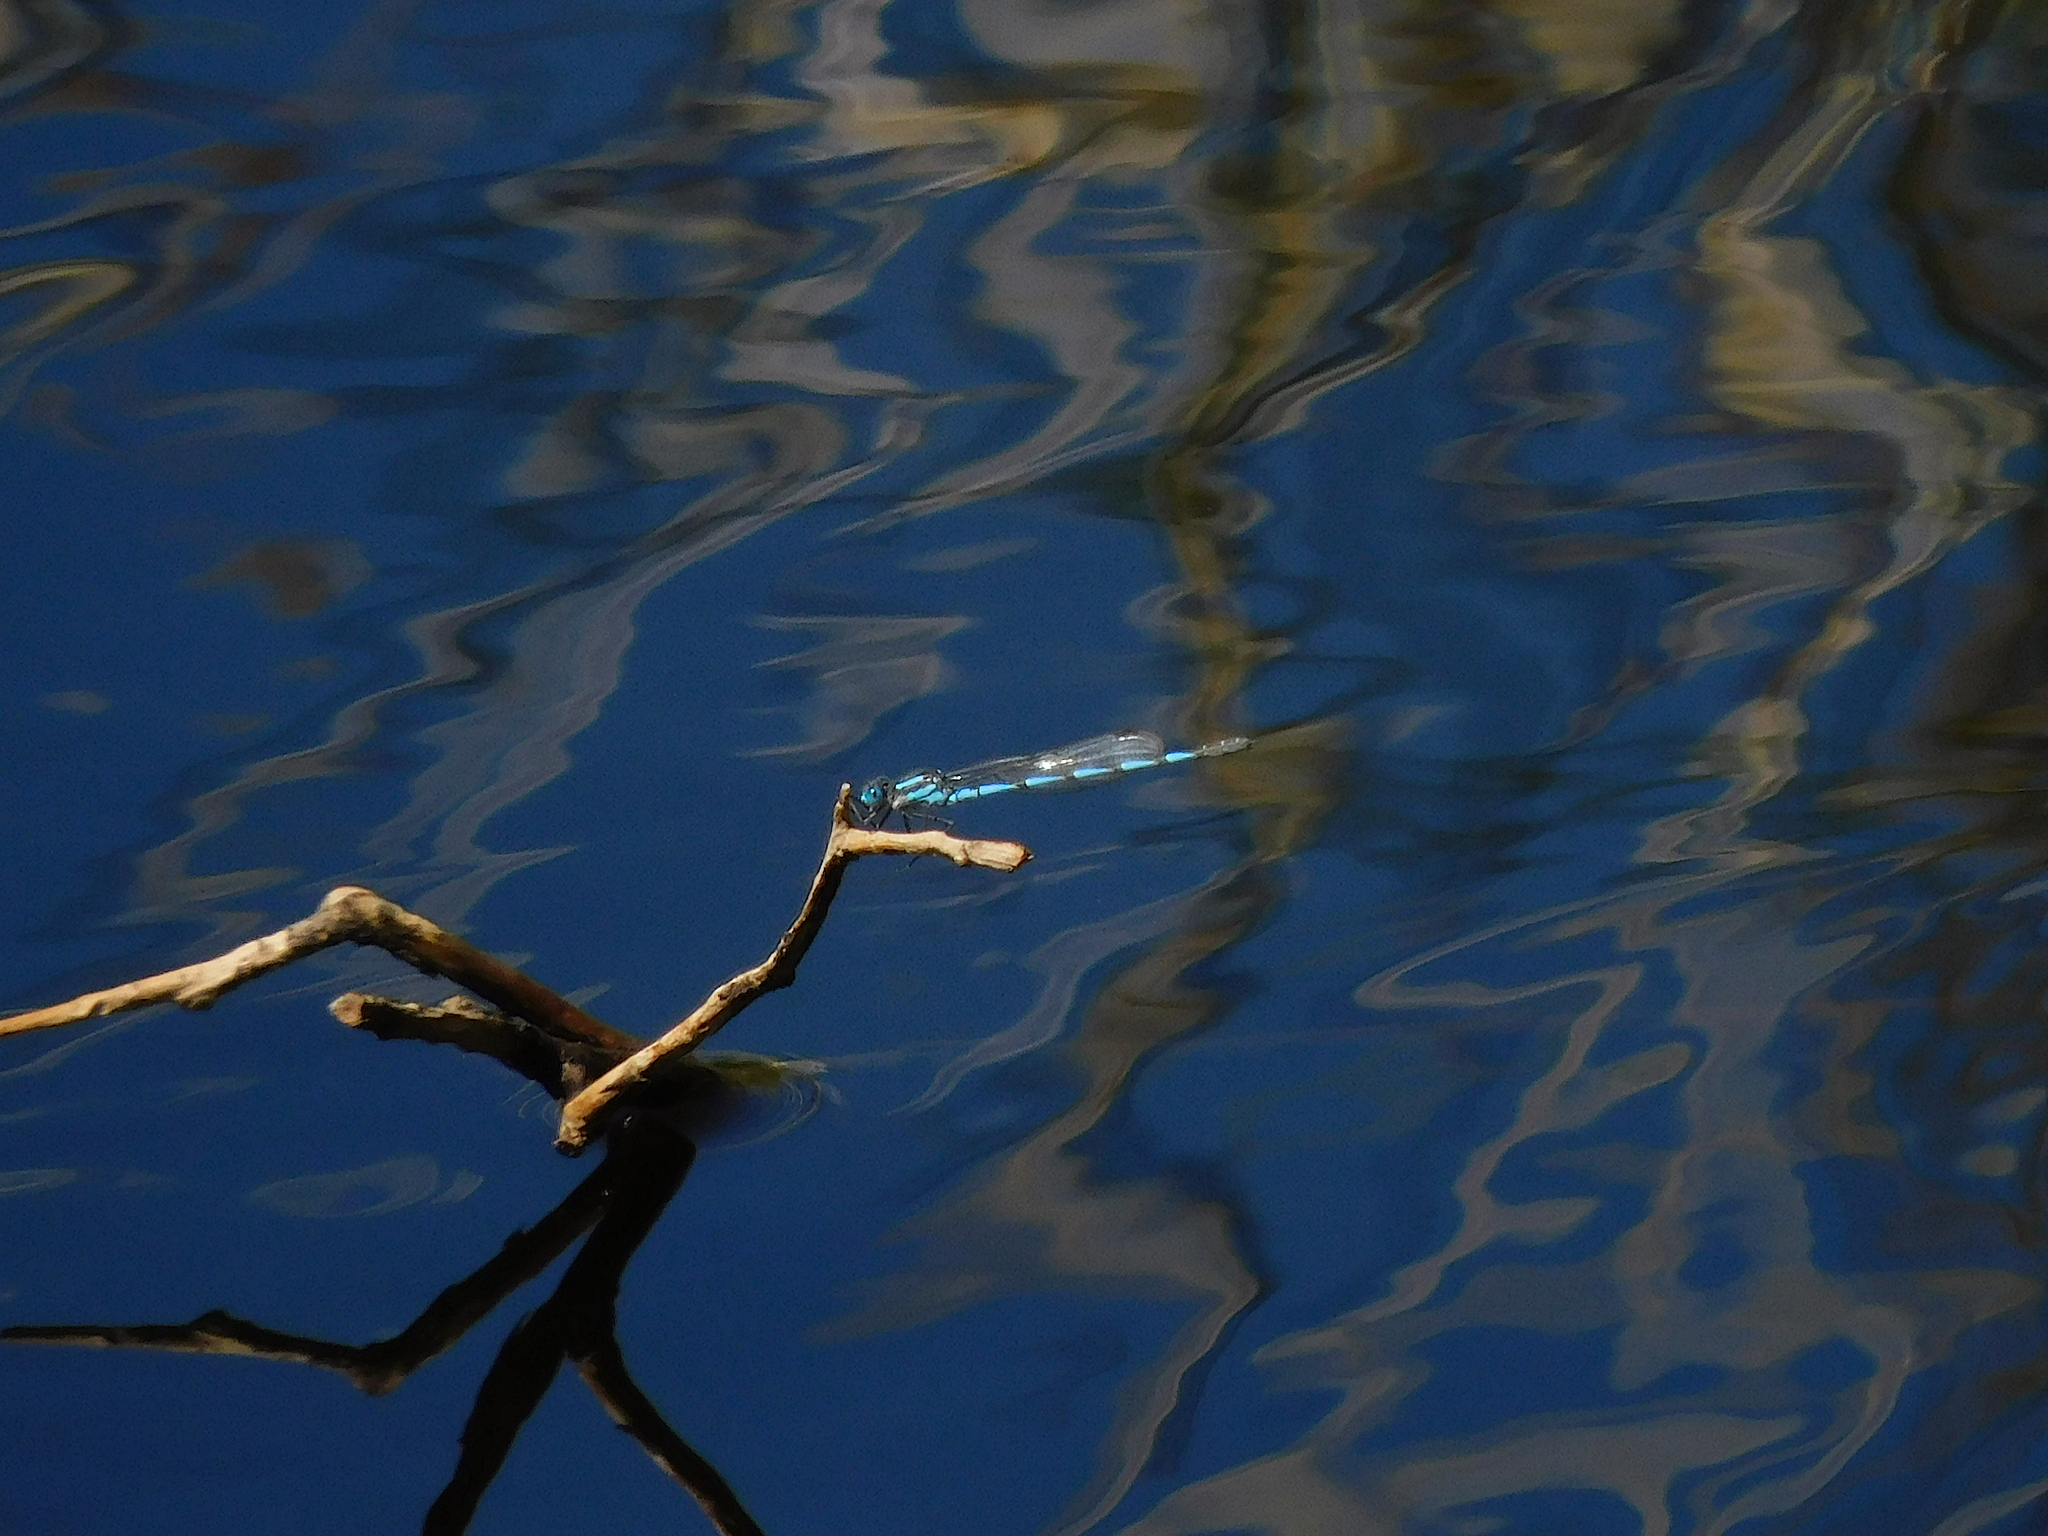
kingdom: Animalia
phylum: Arthropoda
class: Insecta
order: Odonata
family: Lestidae
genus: Austrolestes
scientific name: Austrolestes annulosus
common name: Blue ringtail
